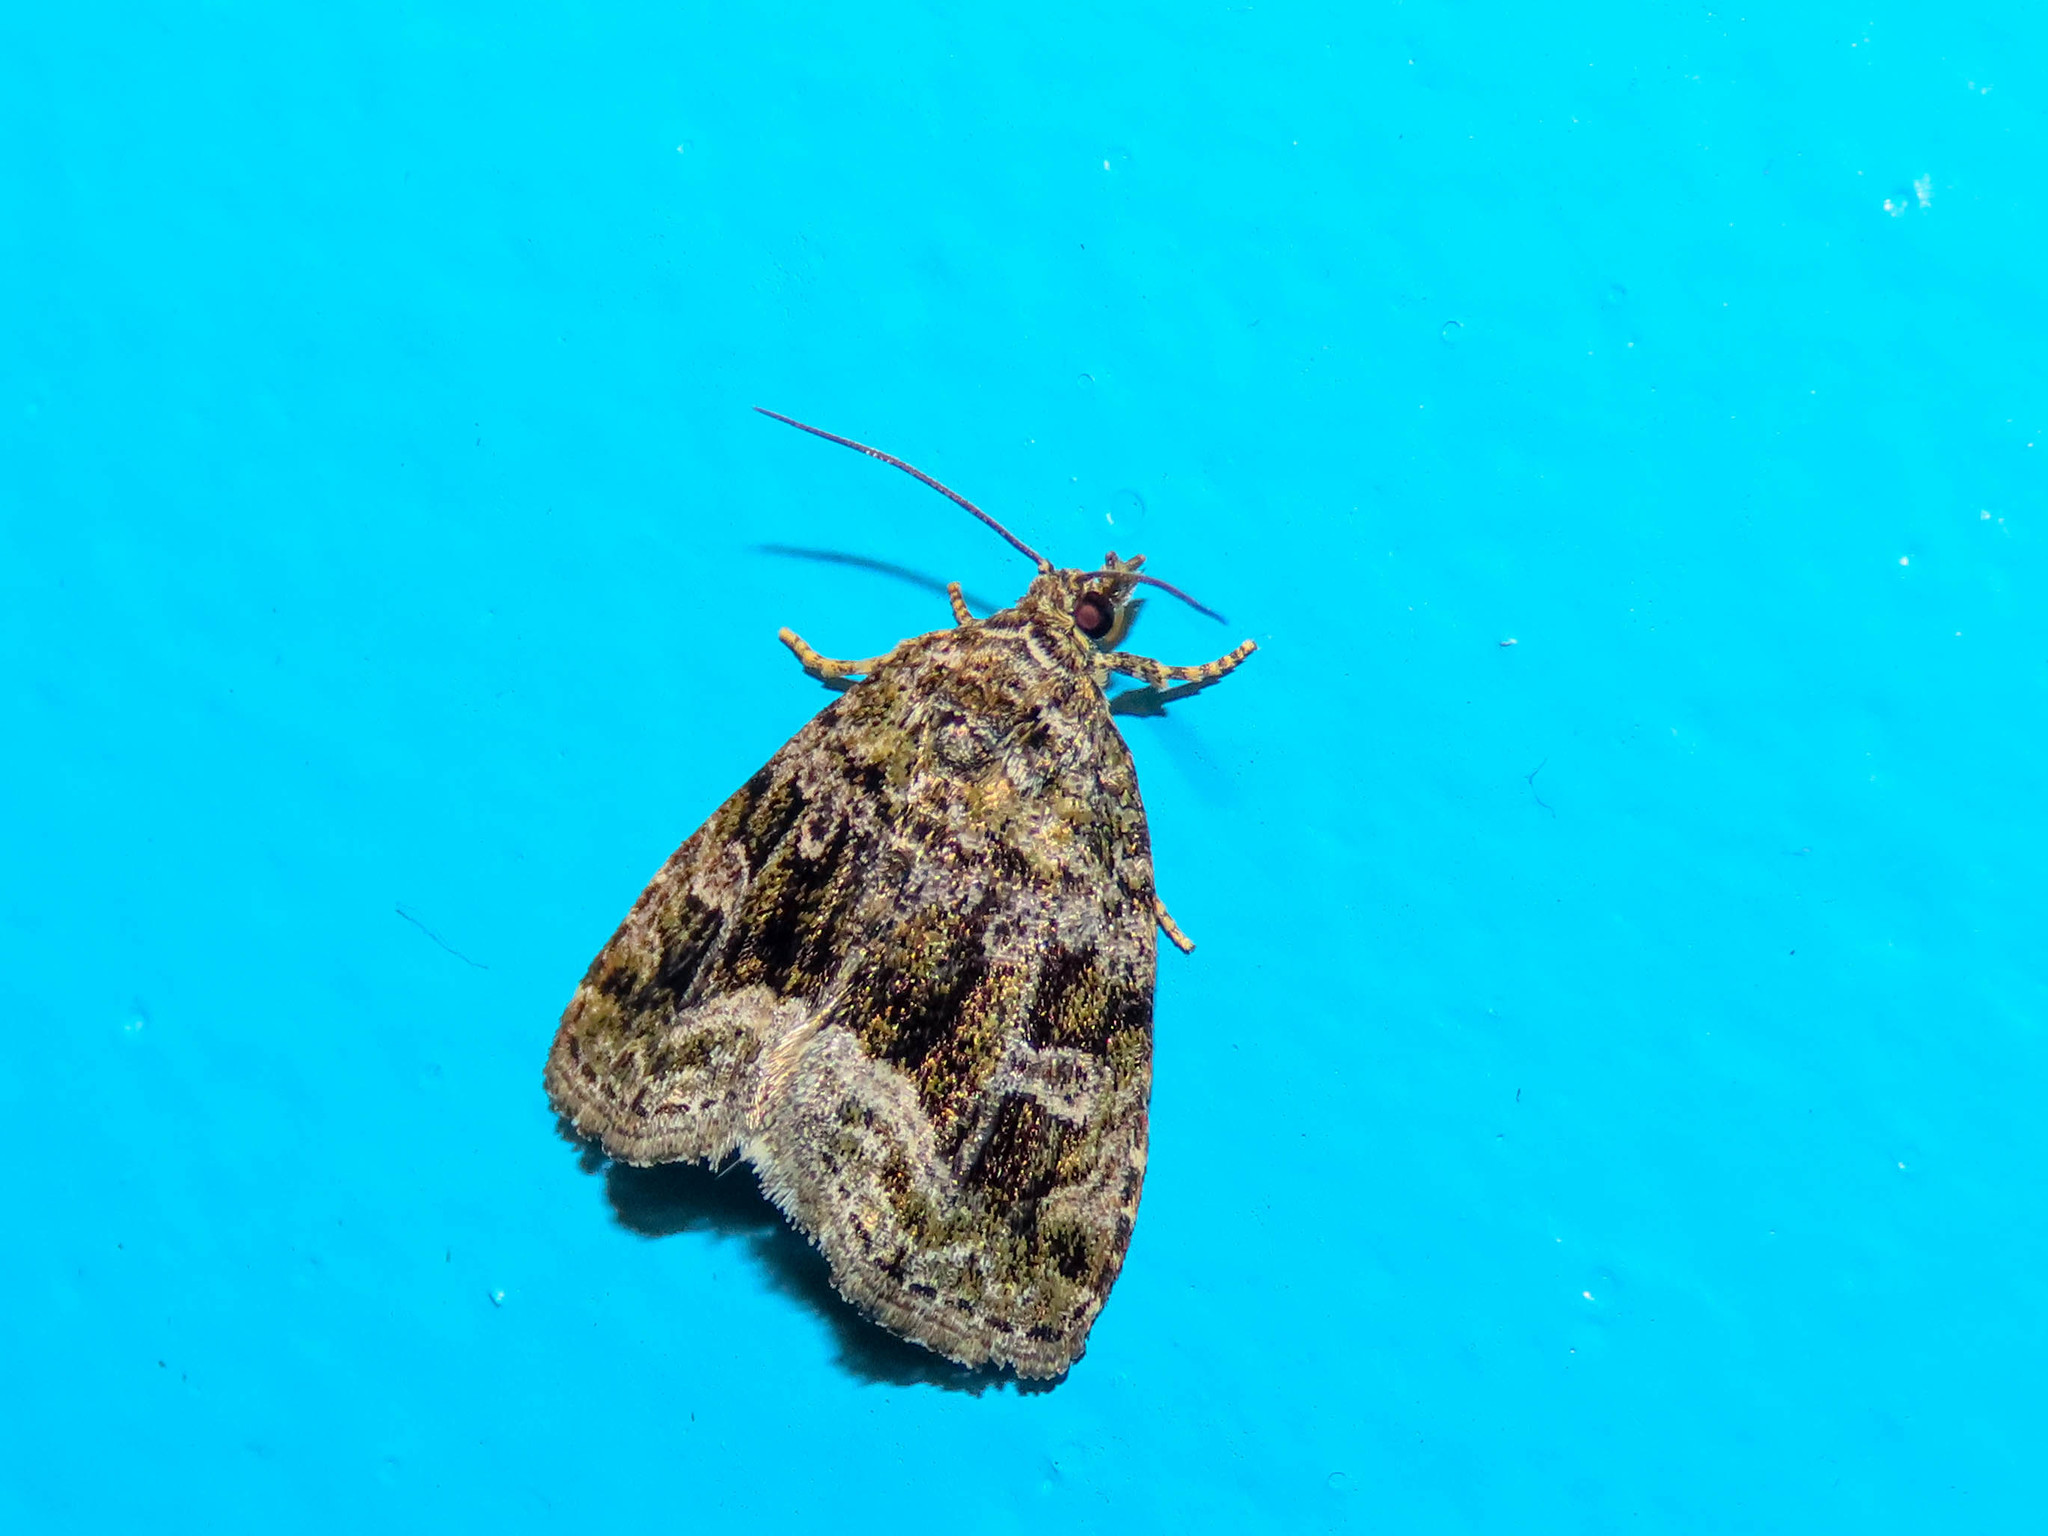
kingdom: Animalia
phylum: Arthropoda
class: Insecta
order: Lepidoptera
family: Noctuidae
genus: Protodeltote
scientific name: Protodeltote muscosula
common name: Large mossy glyph
